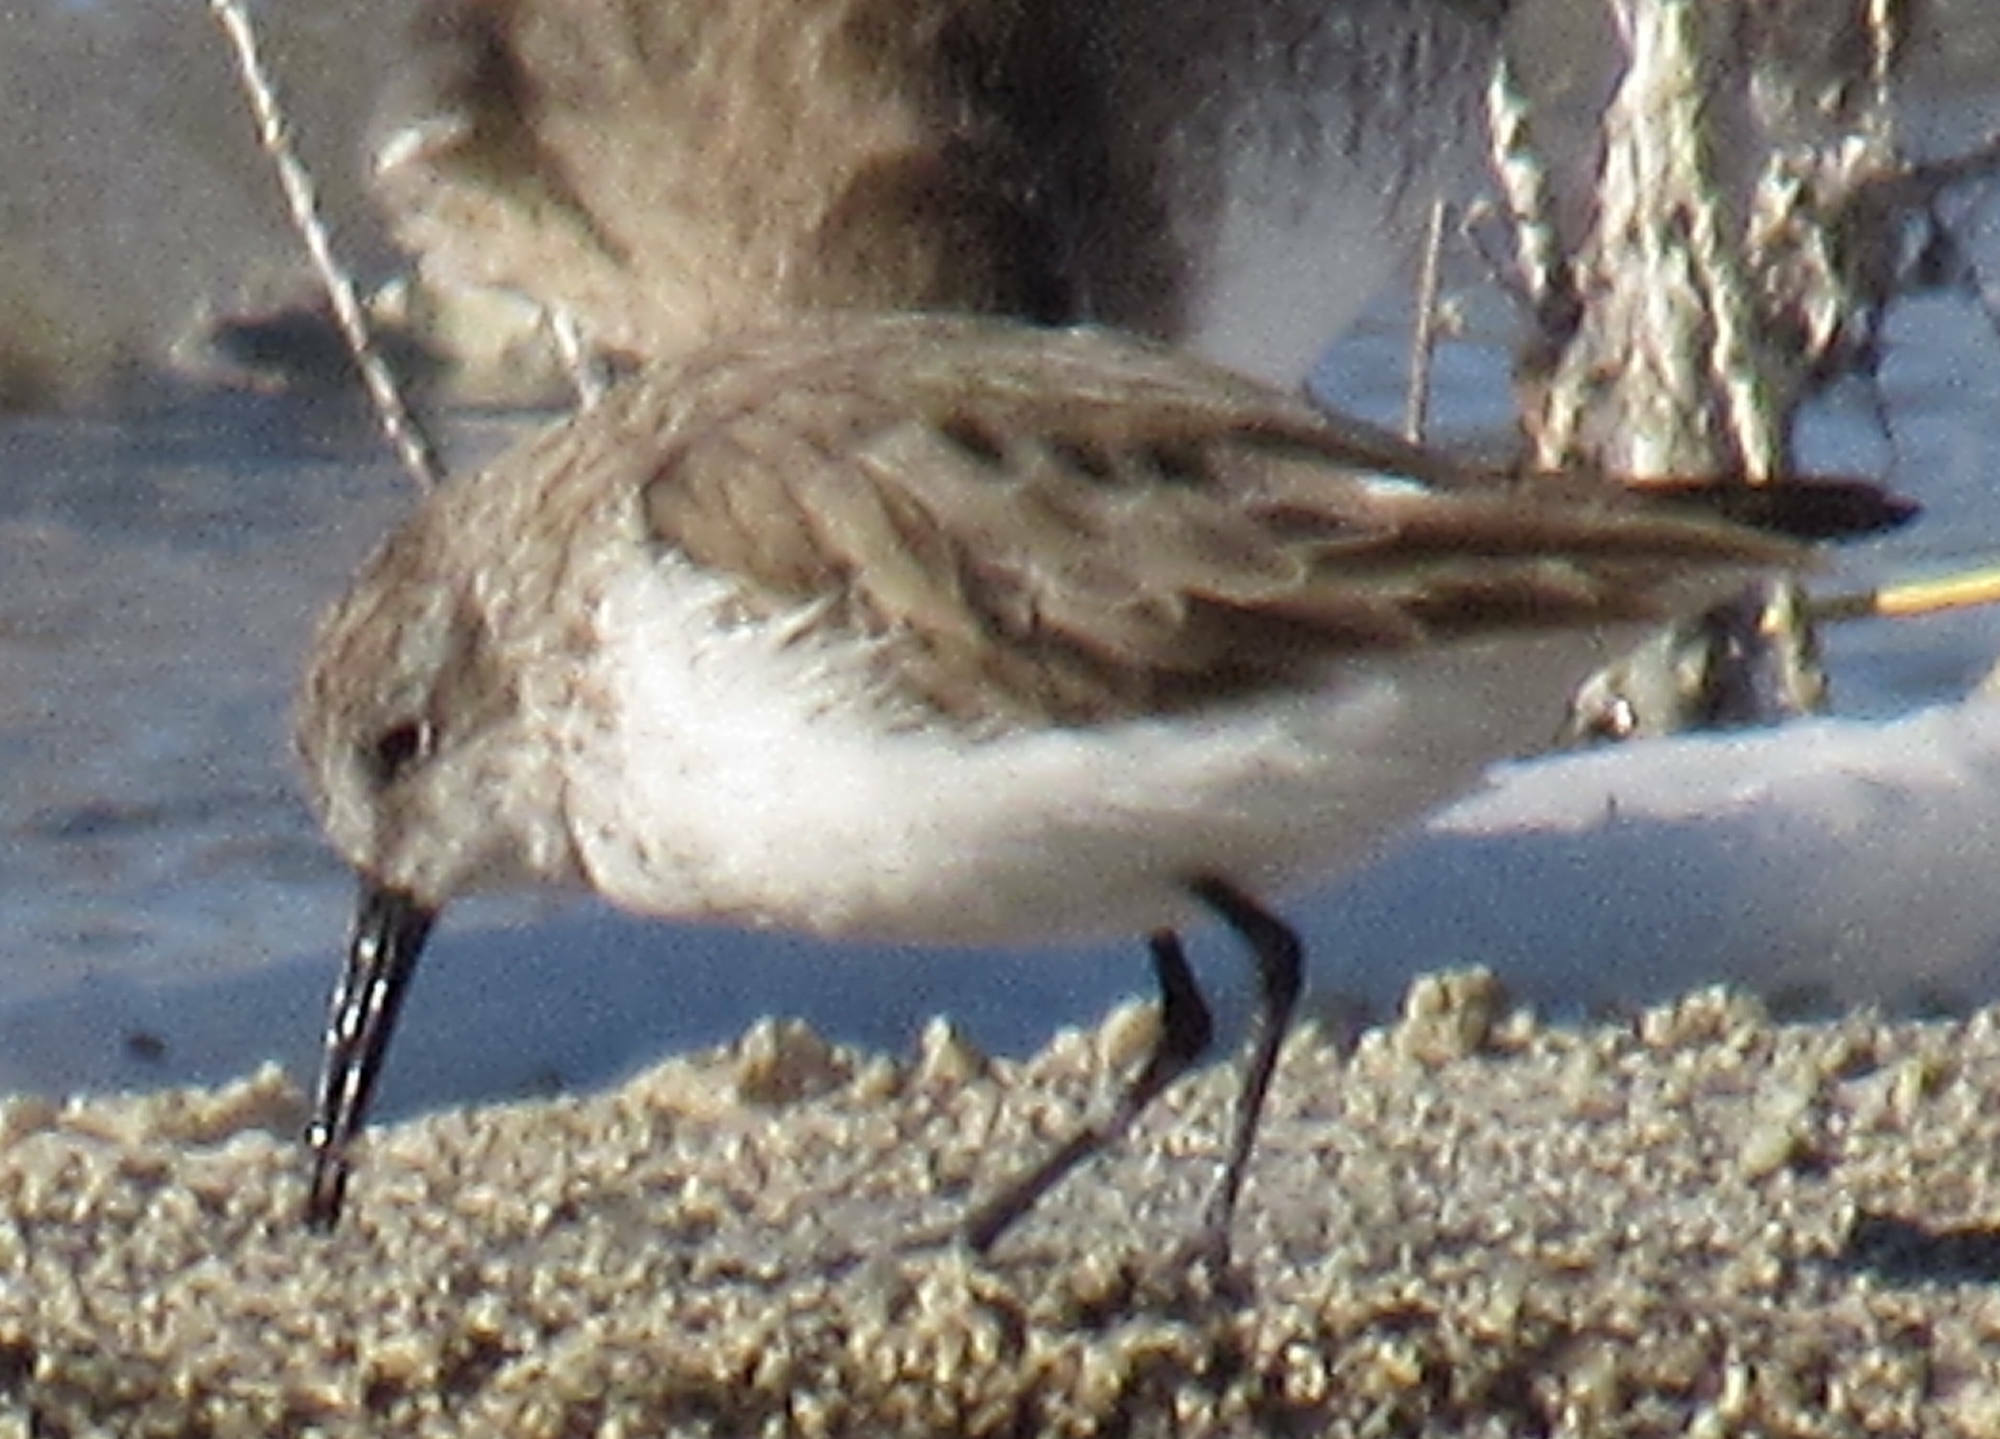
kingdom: Animalia
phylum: Chordata
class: Aves
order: Charadriiformes
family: Scolopacidae
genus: Calidris
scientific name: Calidris mauri
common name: Western sandpiper
